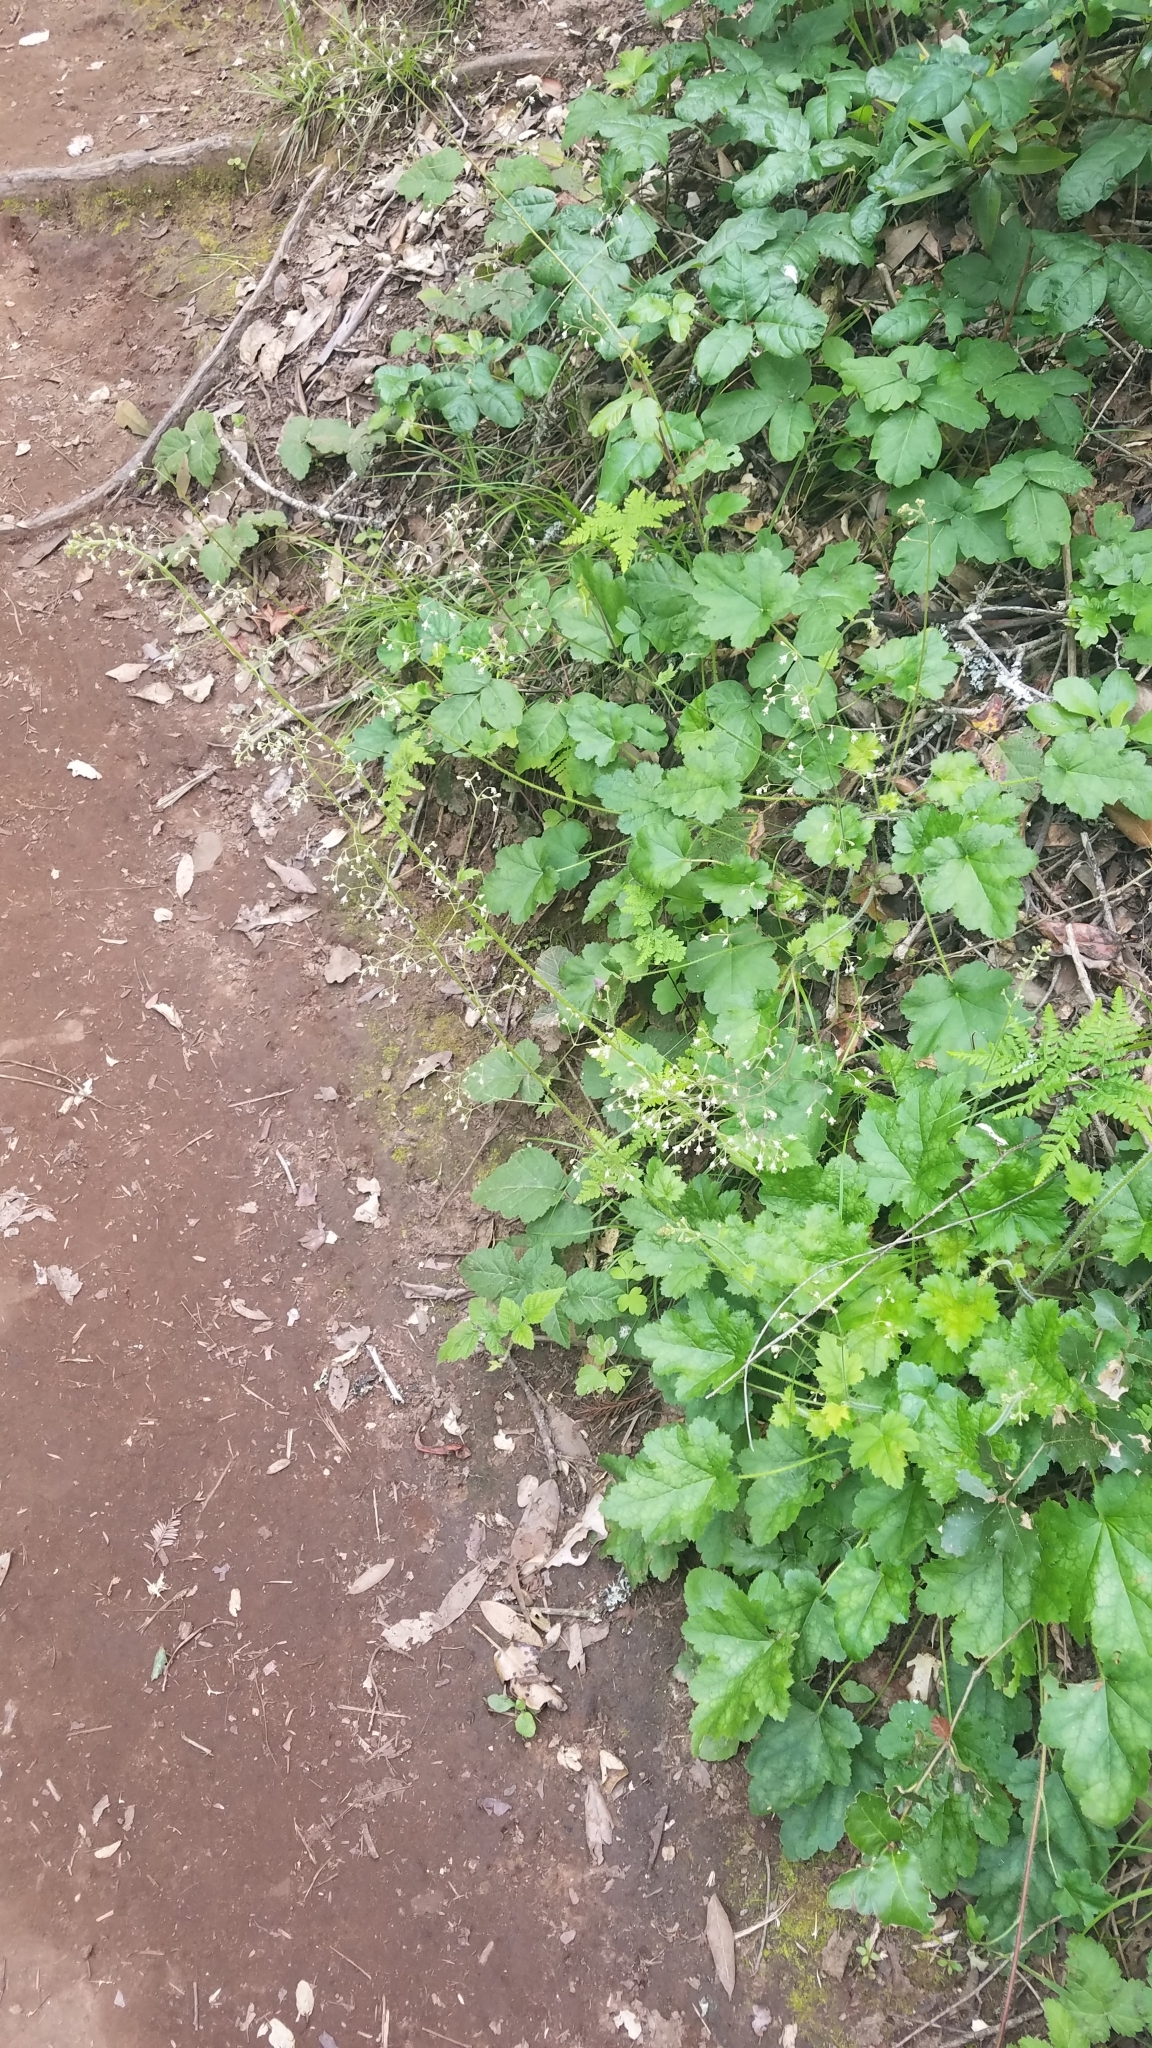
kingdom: Plantae
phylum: Tracheophyta
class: Magnoliopsida
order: Saxifragales
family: Saxifragaceae
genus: Heuchera
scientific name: Heuchera micrantha
